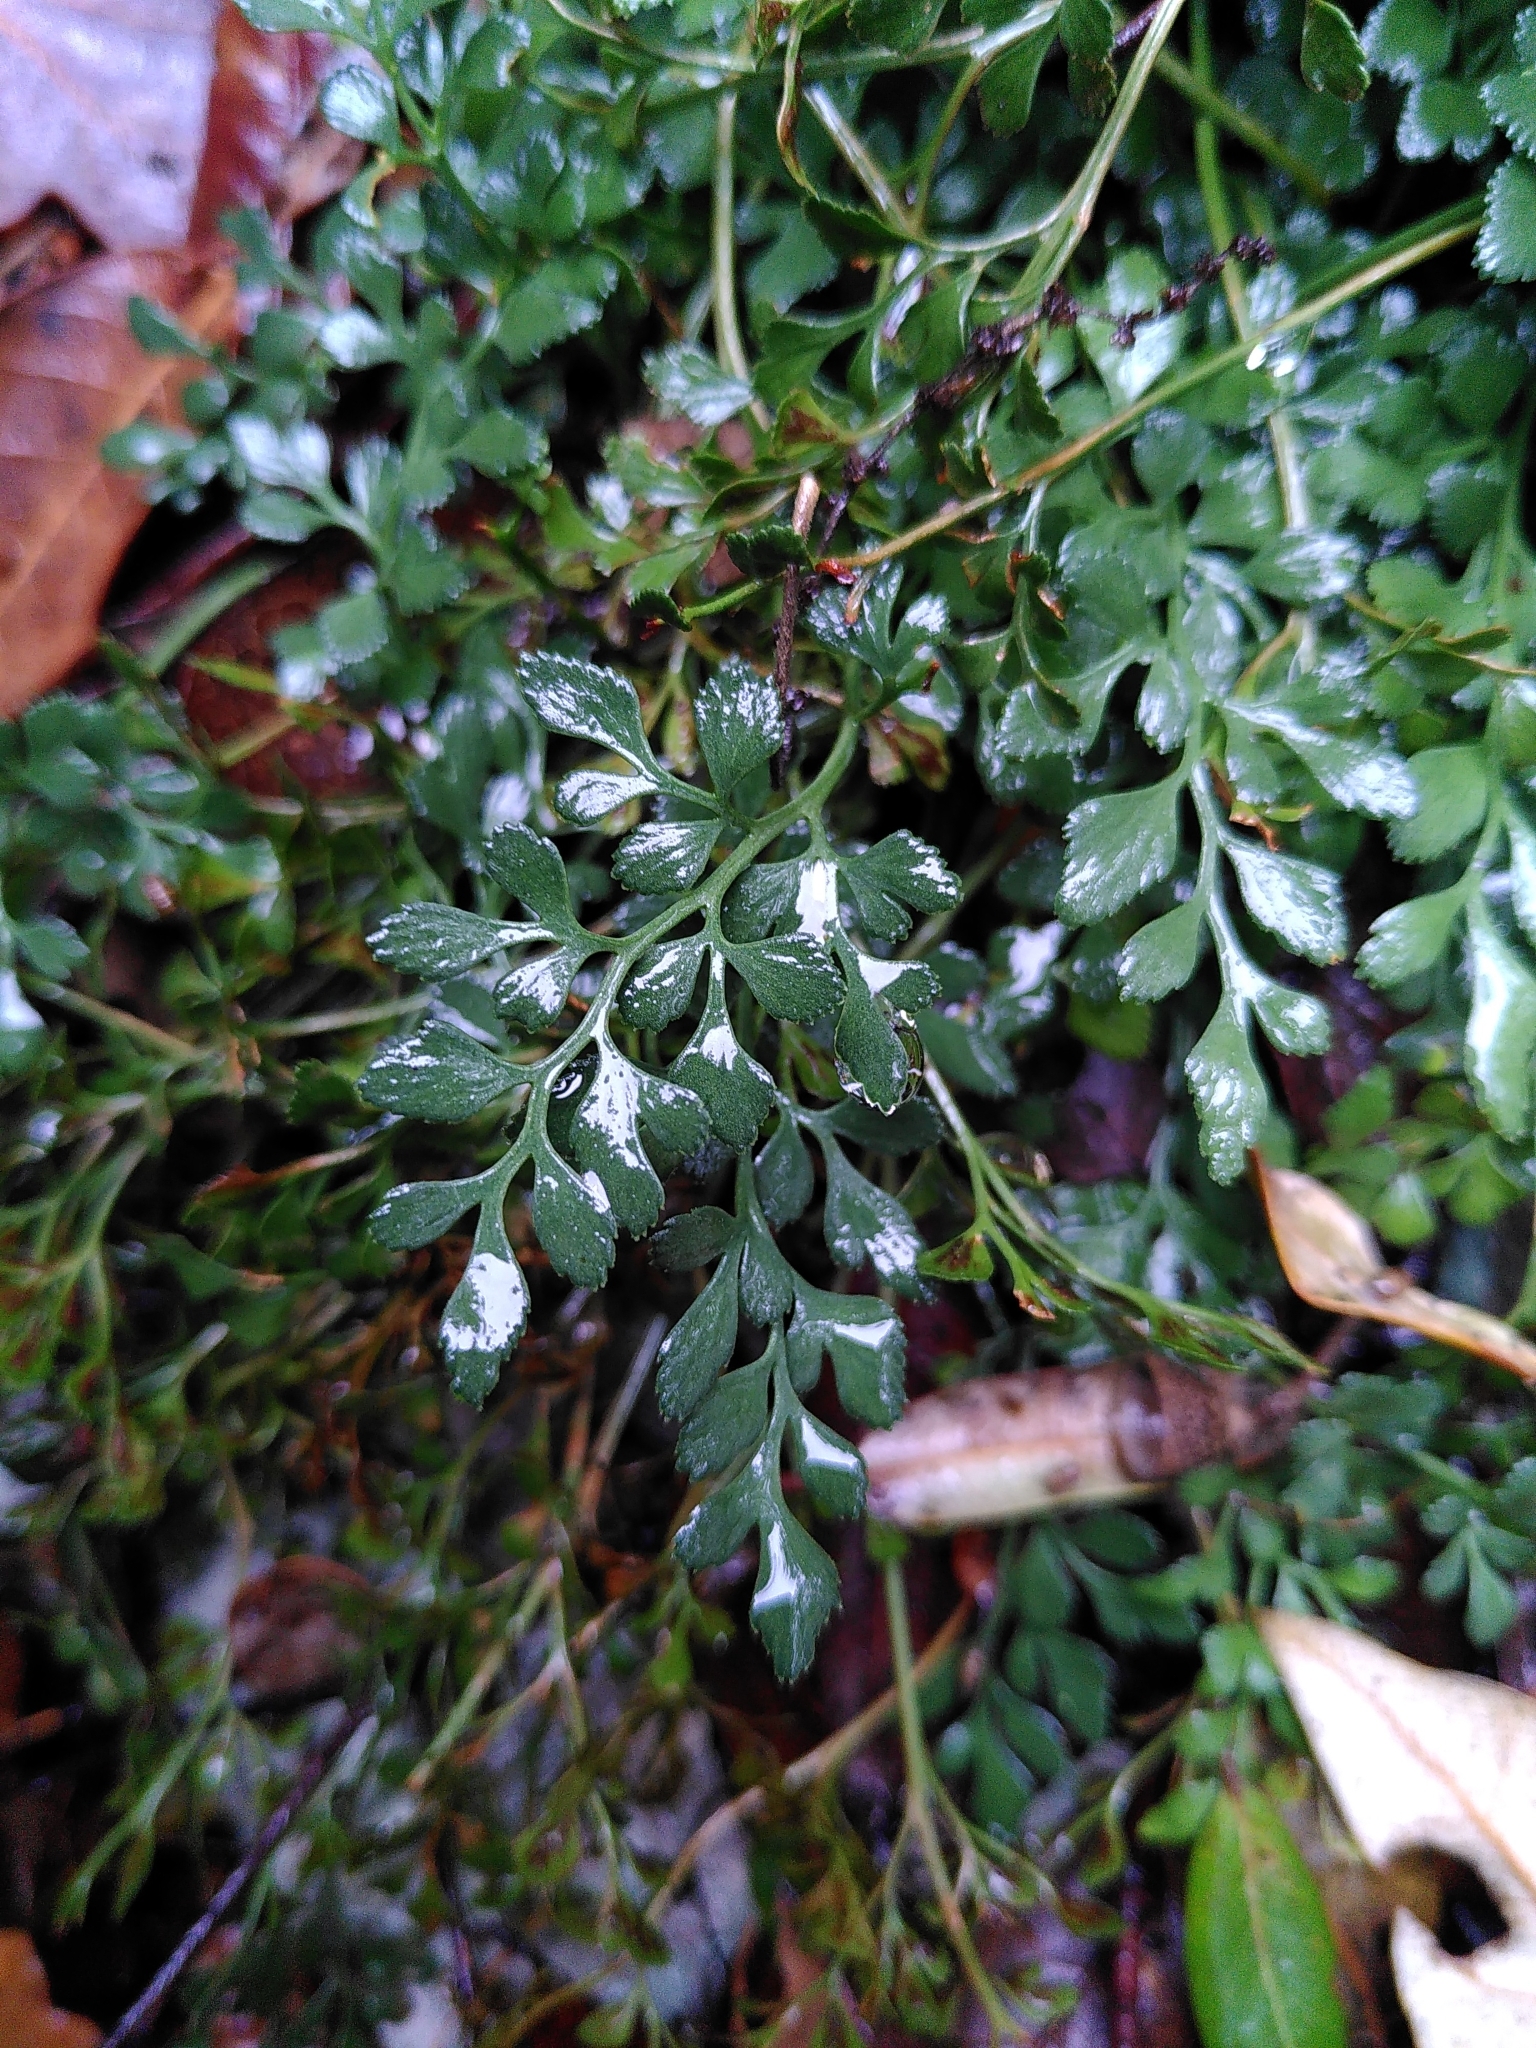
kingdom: Plantae
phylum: Tracheophyta
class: Polypodiopsida
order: Polypodiales
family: Aspleniaceae
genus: Asplenium
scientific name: Asplenium ruta-muraria
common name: Wall-rue
